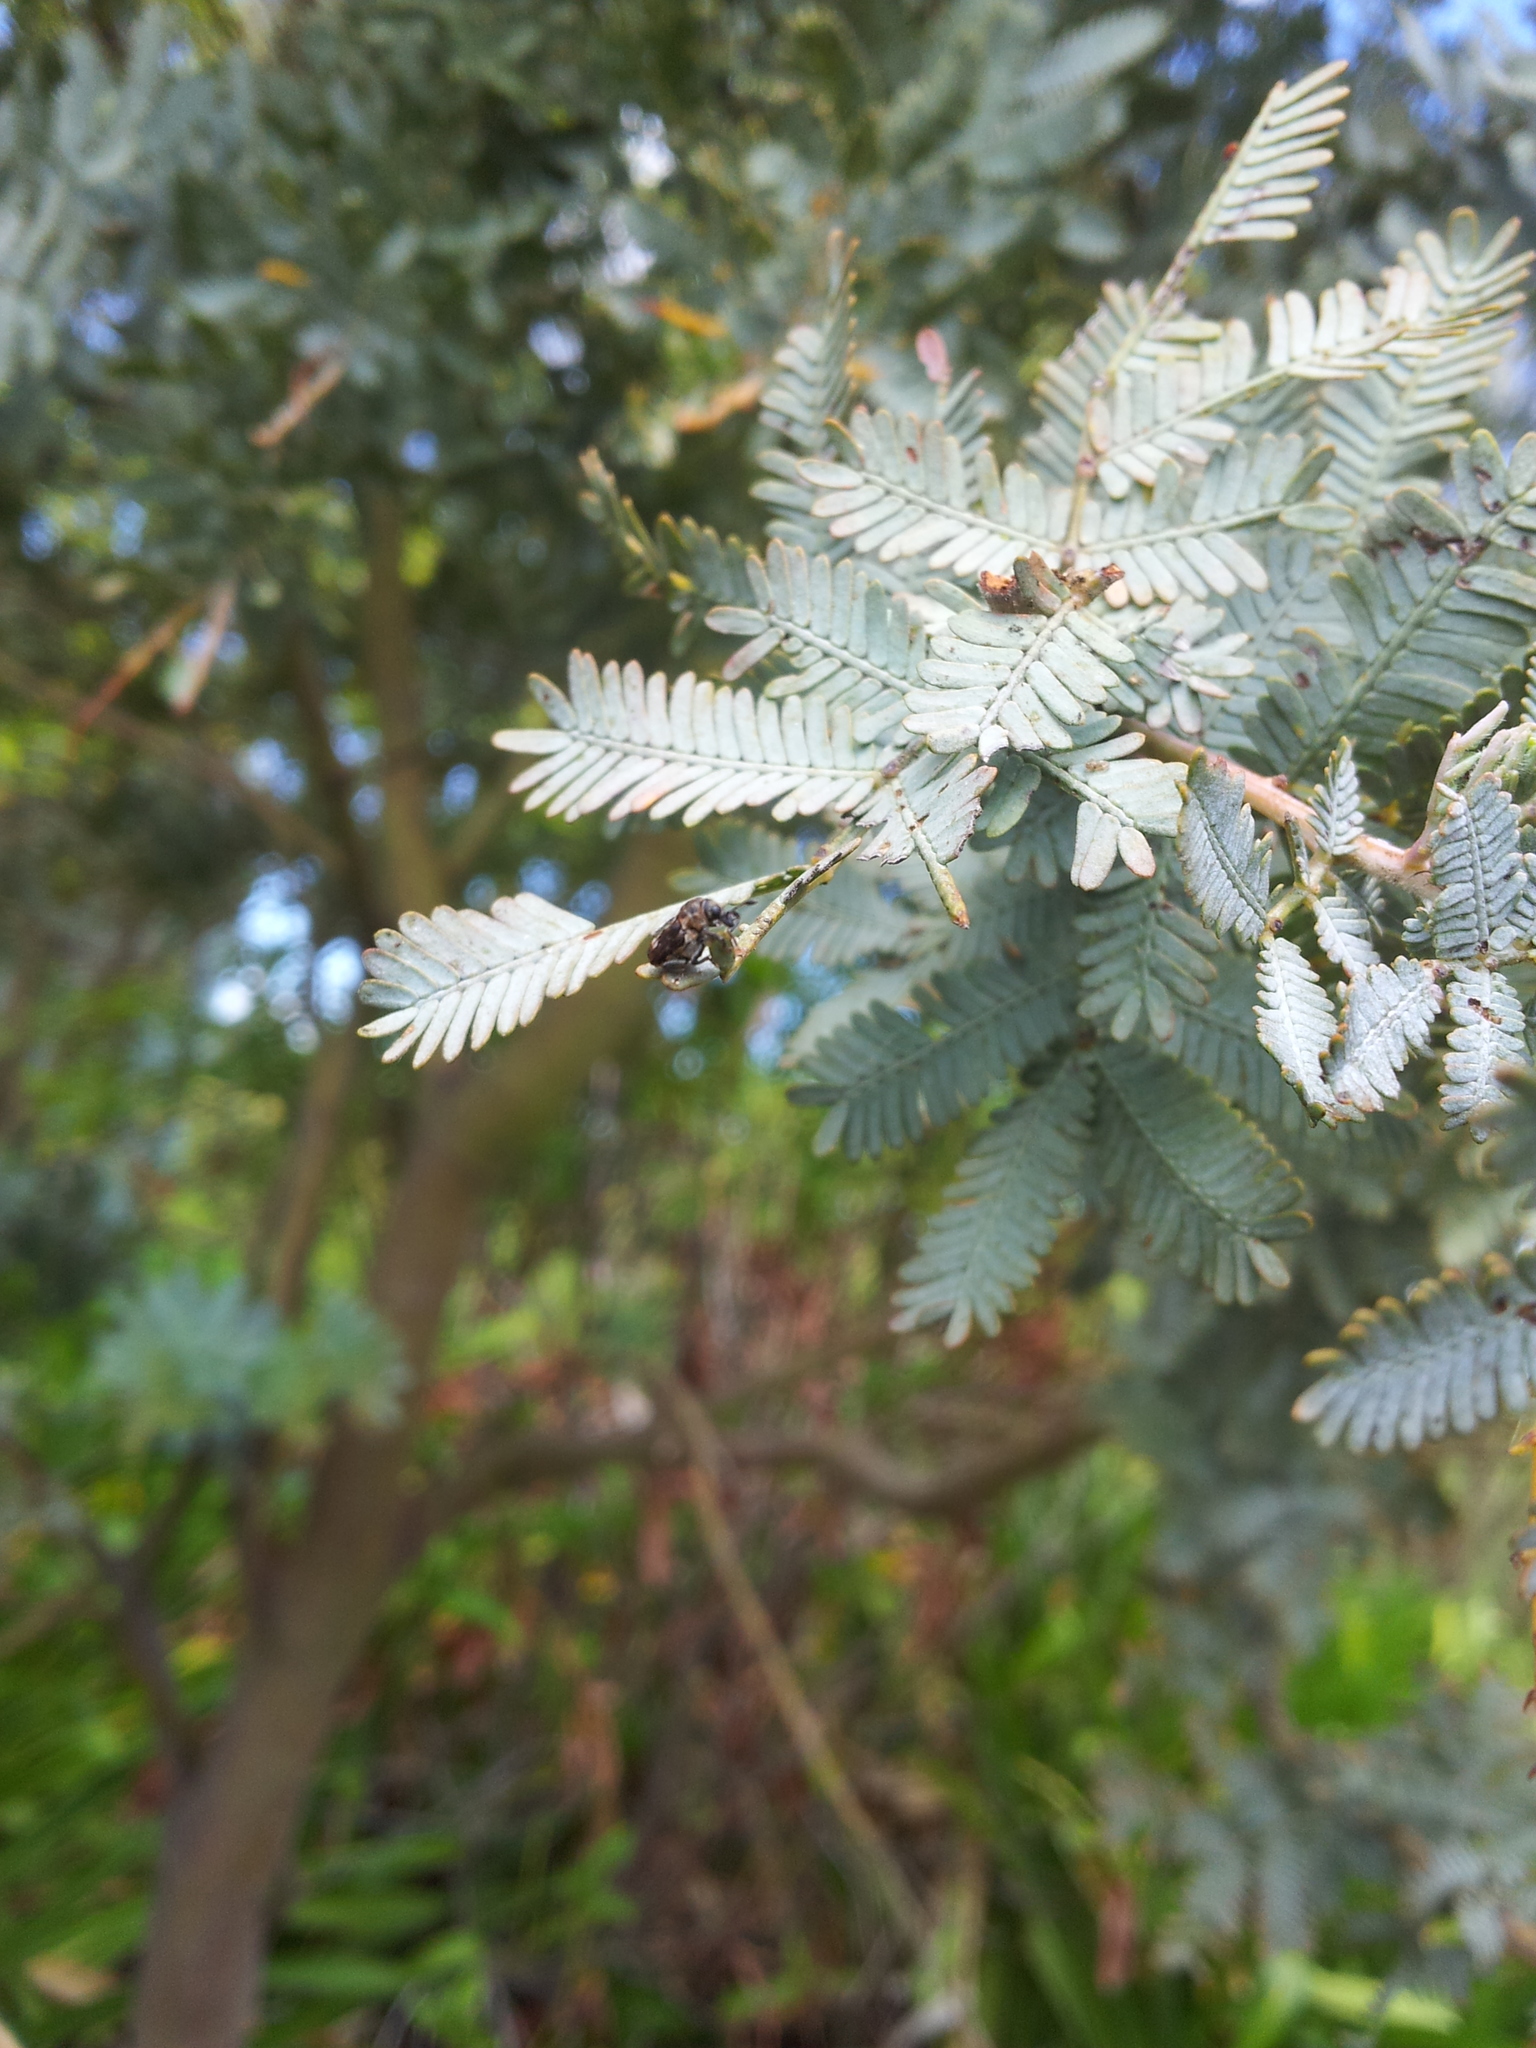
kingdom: Animalia
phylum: Arthropoda
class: Insecta
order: Coleoptera
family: Curculionidae
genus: Neolaemosaccus
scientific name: Neolaemosaccus narinus
